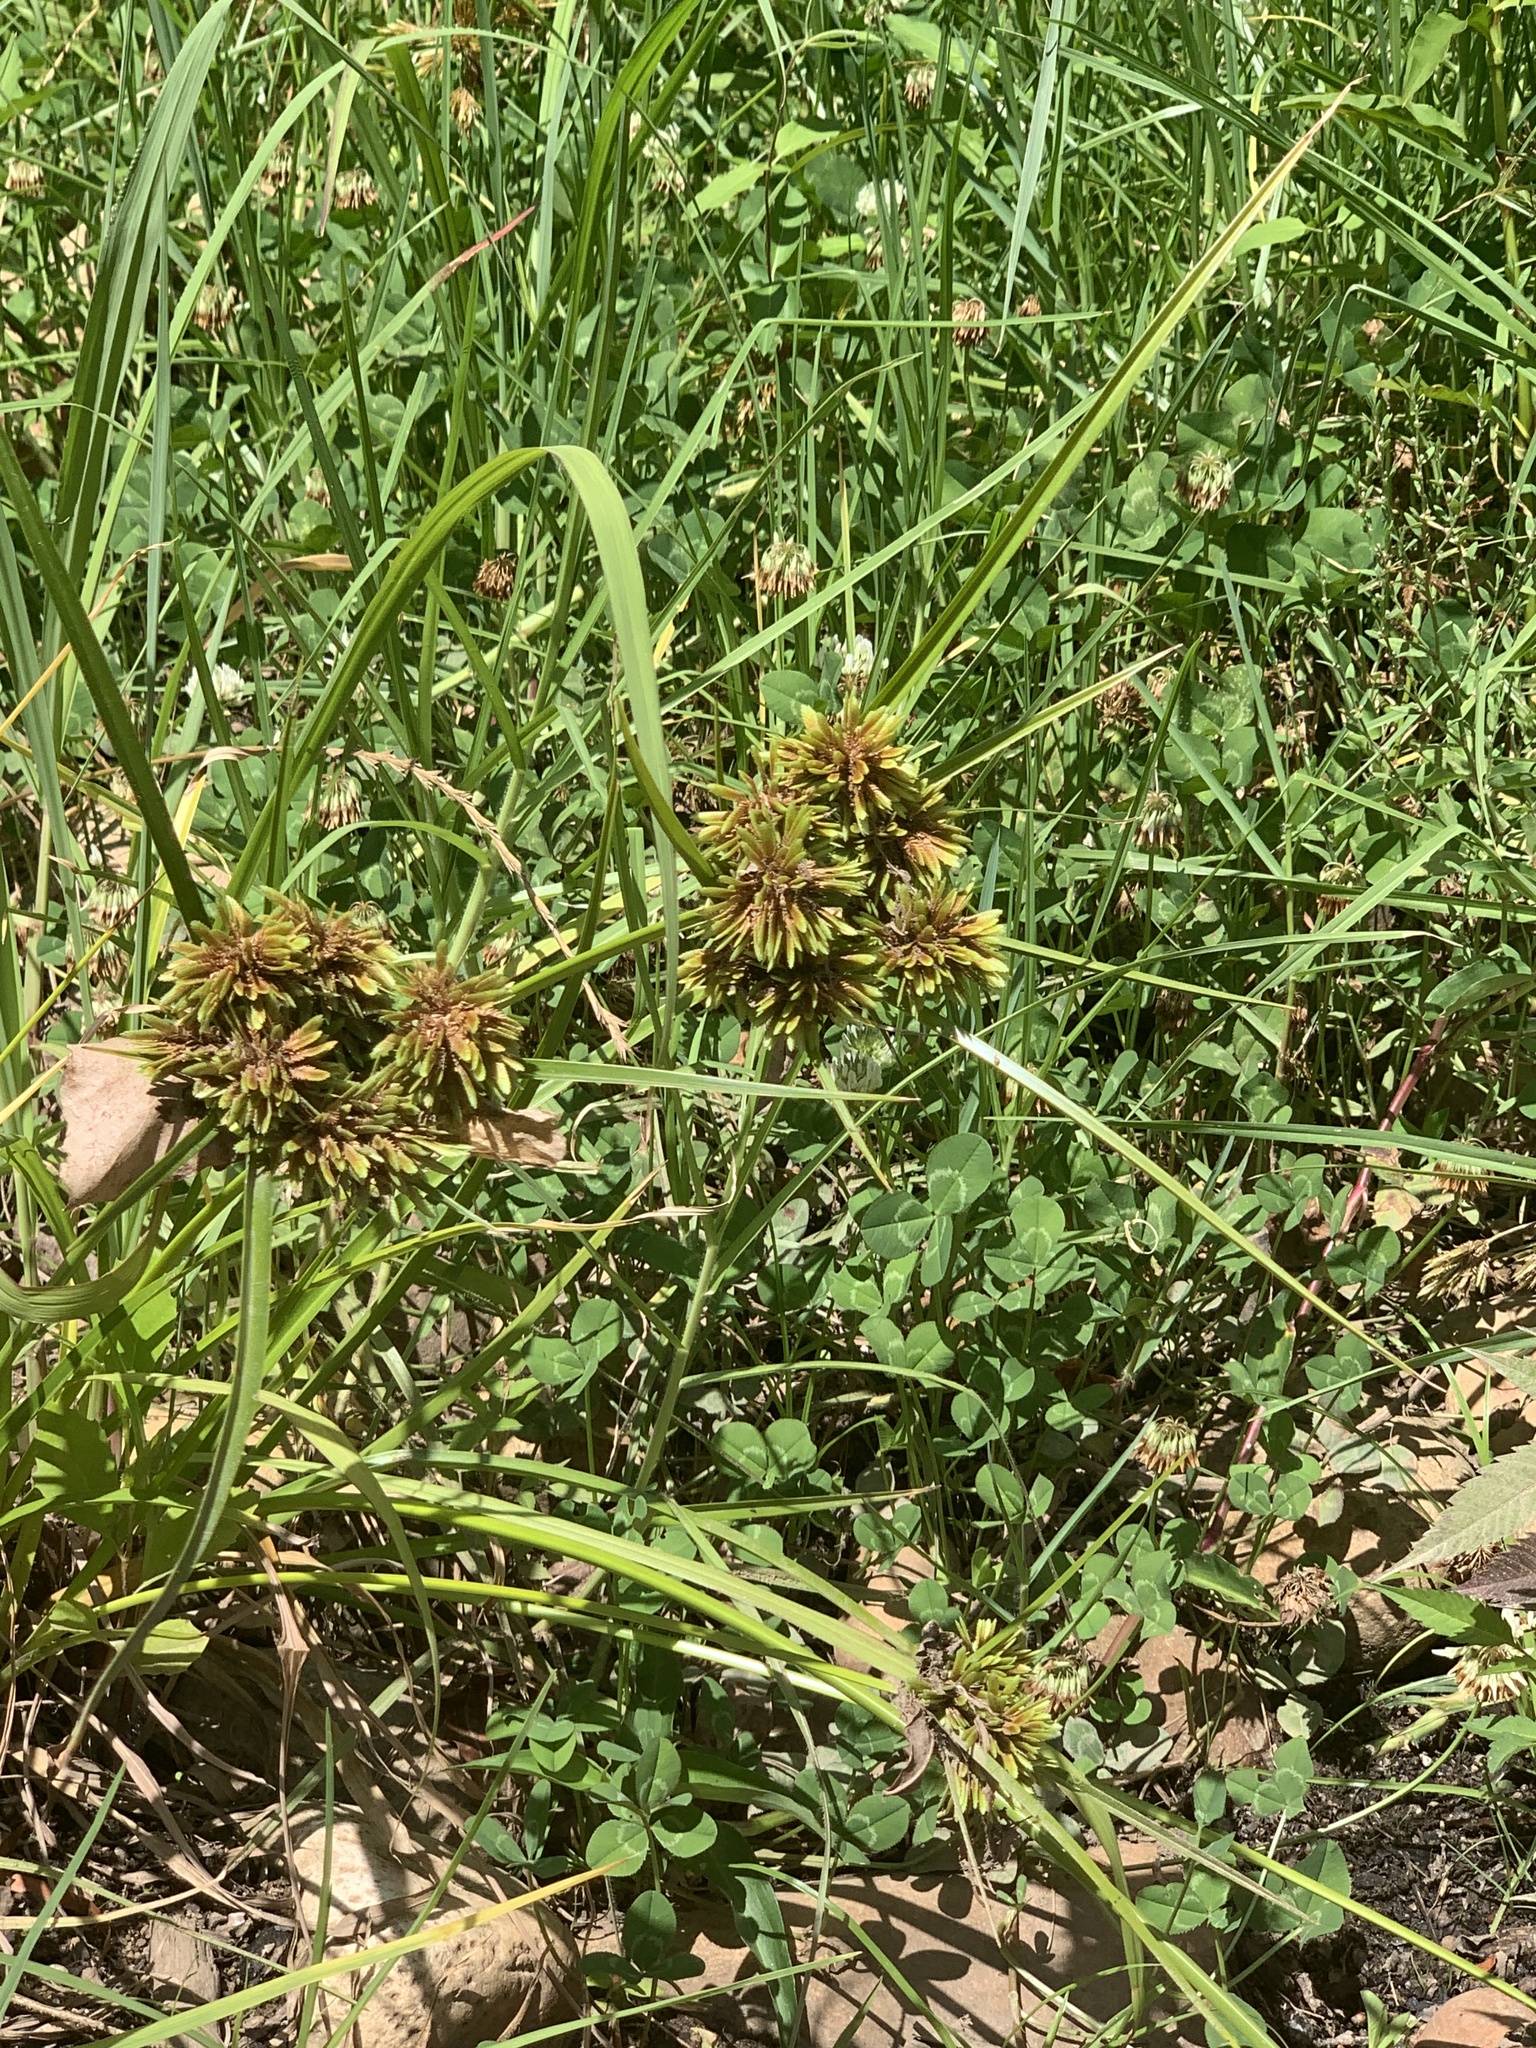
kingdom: Plantae
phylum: Tracheophyta
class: Liliopsida
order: Poales
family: Cyperaceae
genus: Cyperus
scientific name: Cyperus eragrostis
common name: Tall flatsedge
